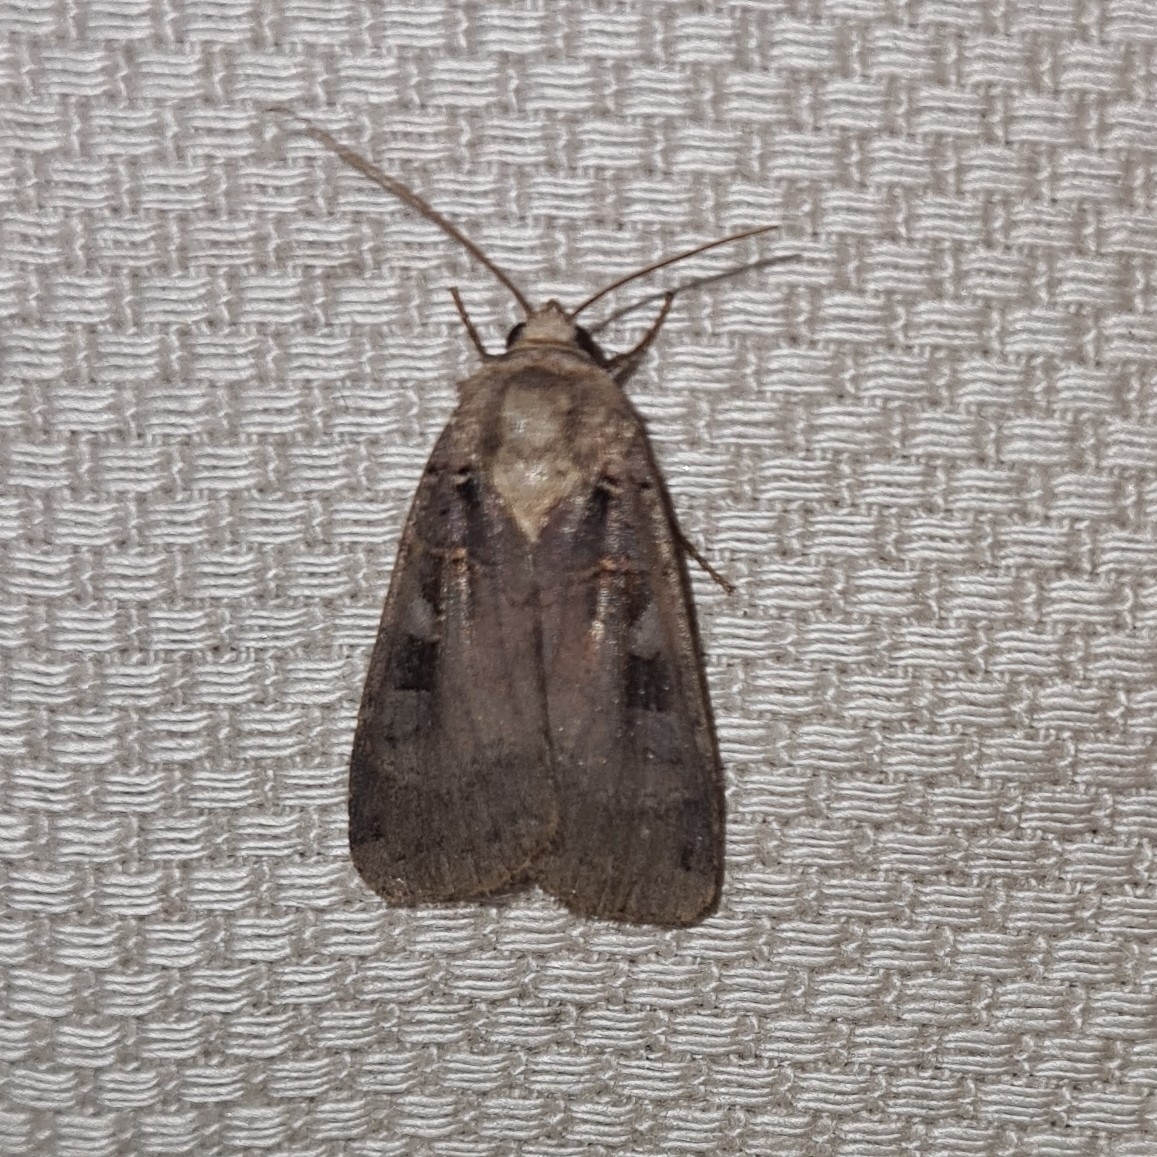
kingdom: Animalia
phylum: Arthropoda
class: Insecta
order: Lepidoptera
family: Noctuidae
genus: Xestia
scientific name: Xestia ditrapezium
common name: Triple-spotted clay
